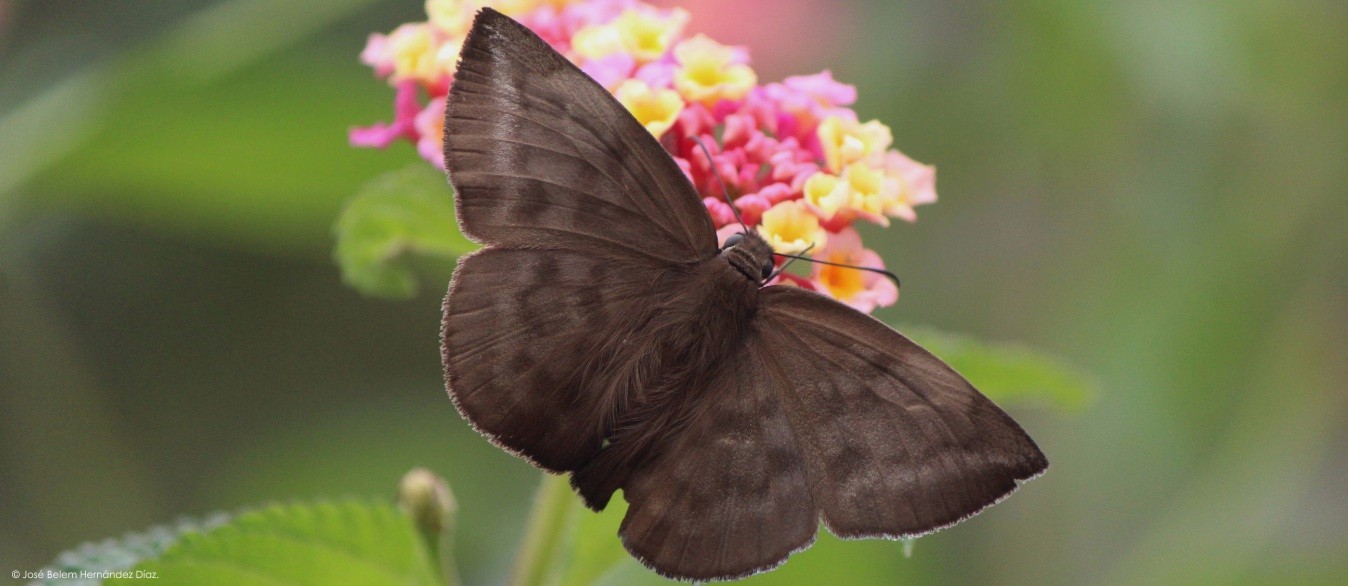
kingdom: Animalia
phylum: Arthropoda
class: Insecta
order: Lepidoptera
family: Hesperiidae
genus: Achlyodes
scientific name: Achlyodes pallida
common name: Pale sicklewing
